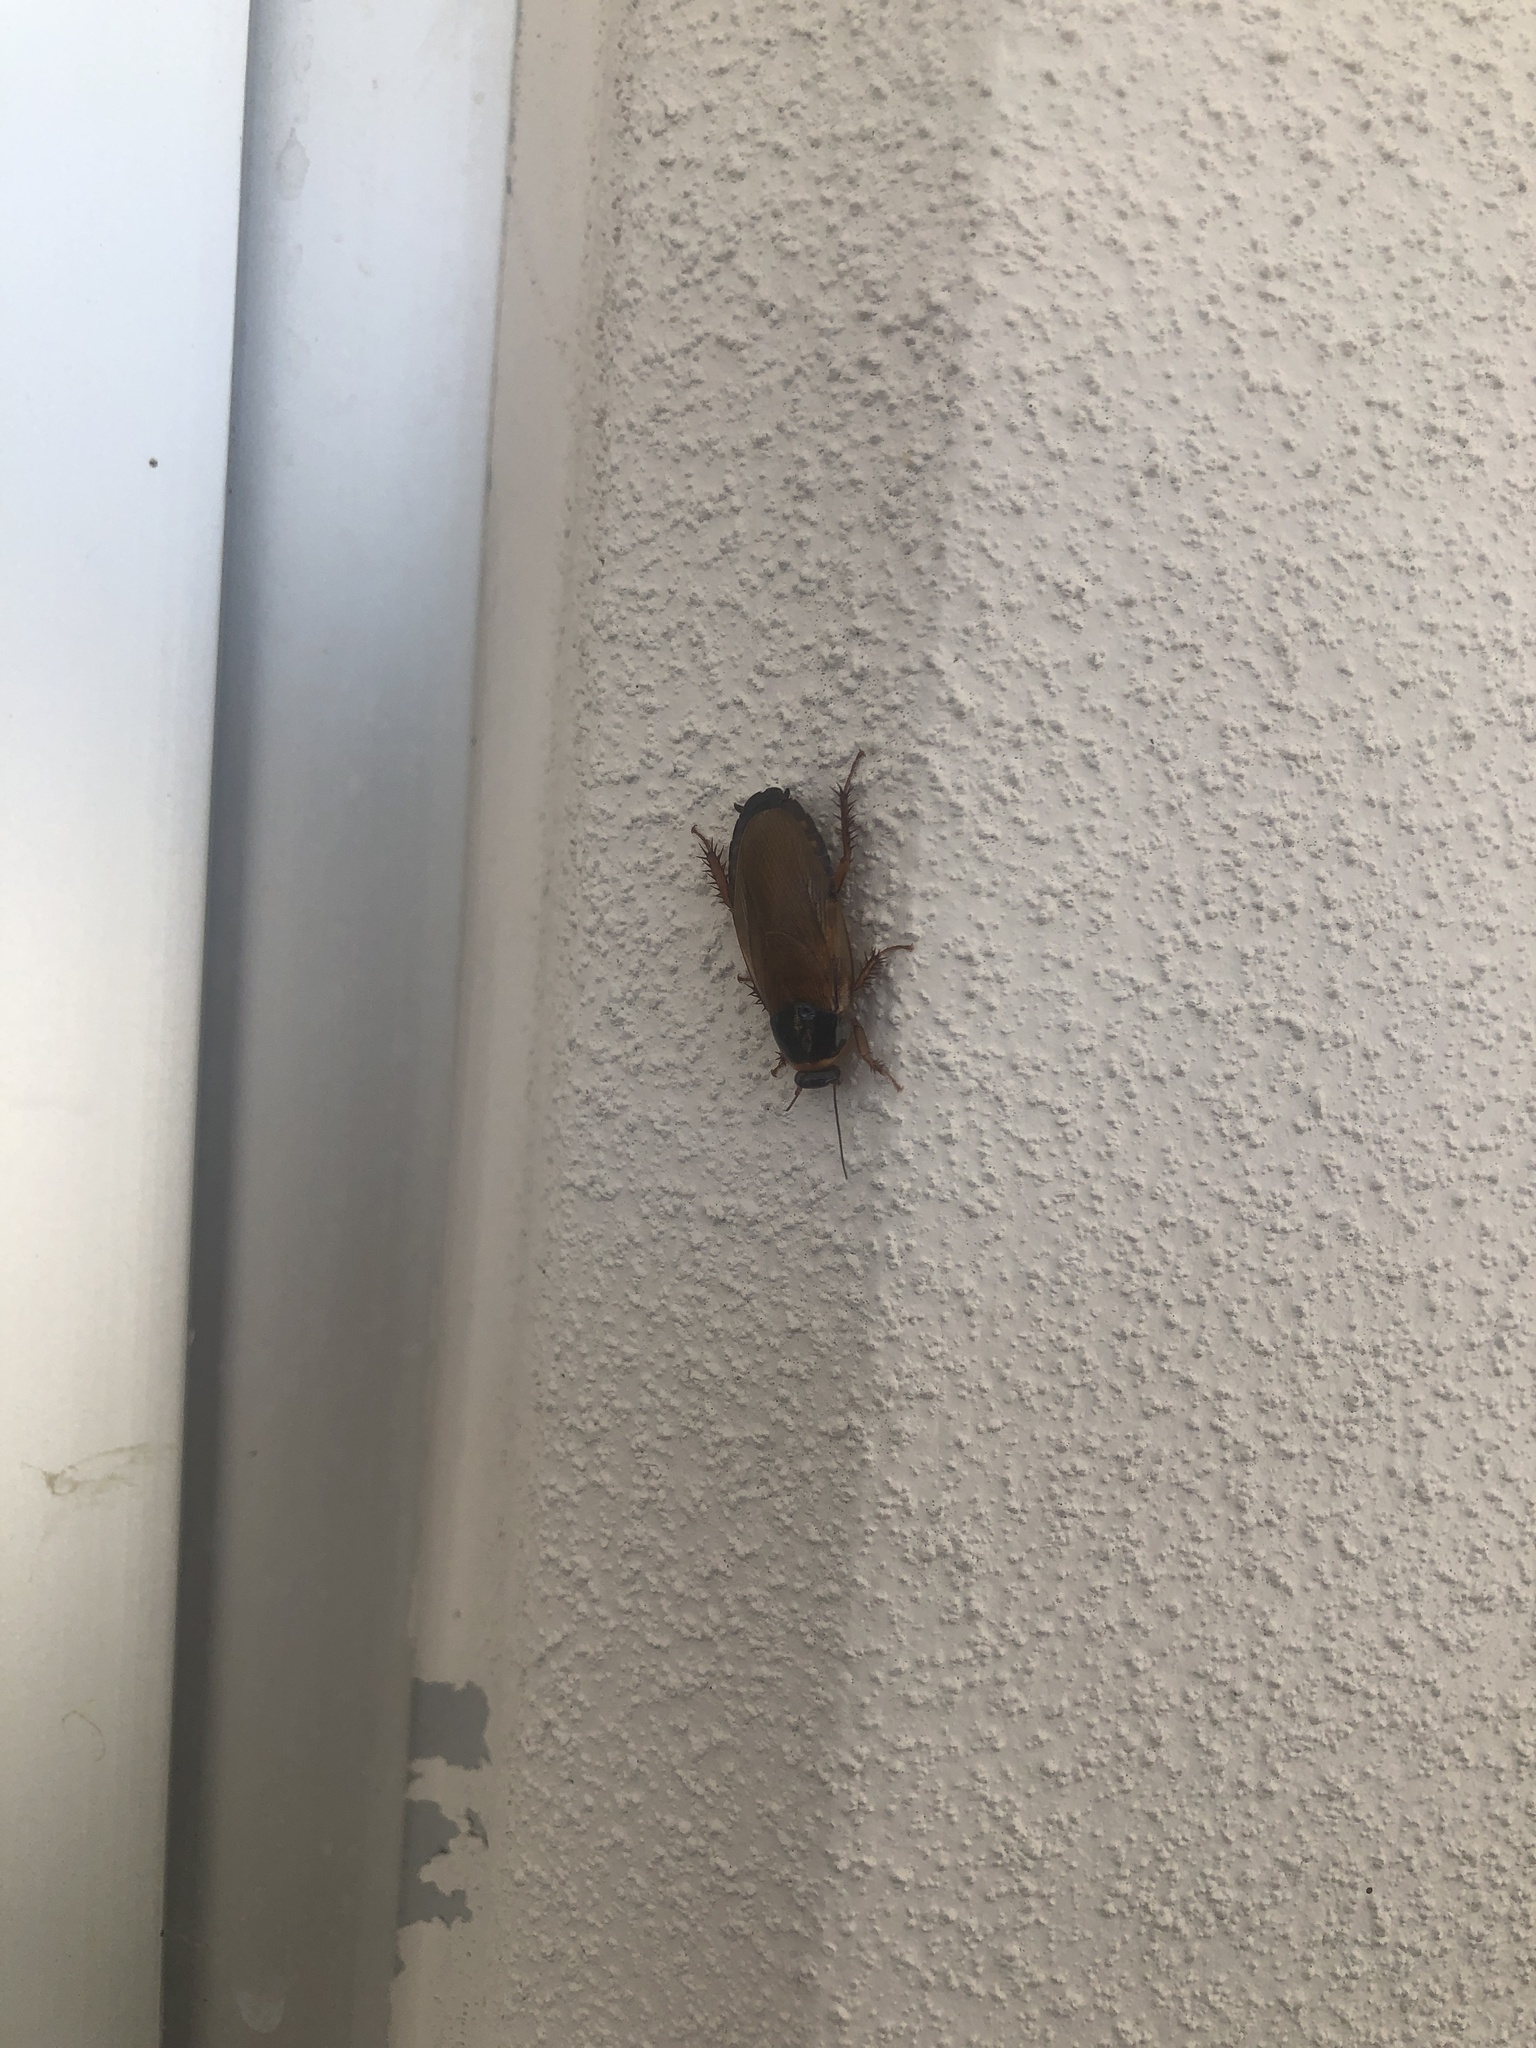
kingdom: Animalia
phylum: Arthropoda
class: Insecta
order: Blattodea
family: Blaberidae
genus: Pycnoscelus
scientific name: Pycnoscelus surinamensis
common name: Surinam cockroach
